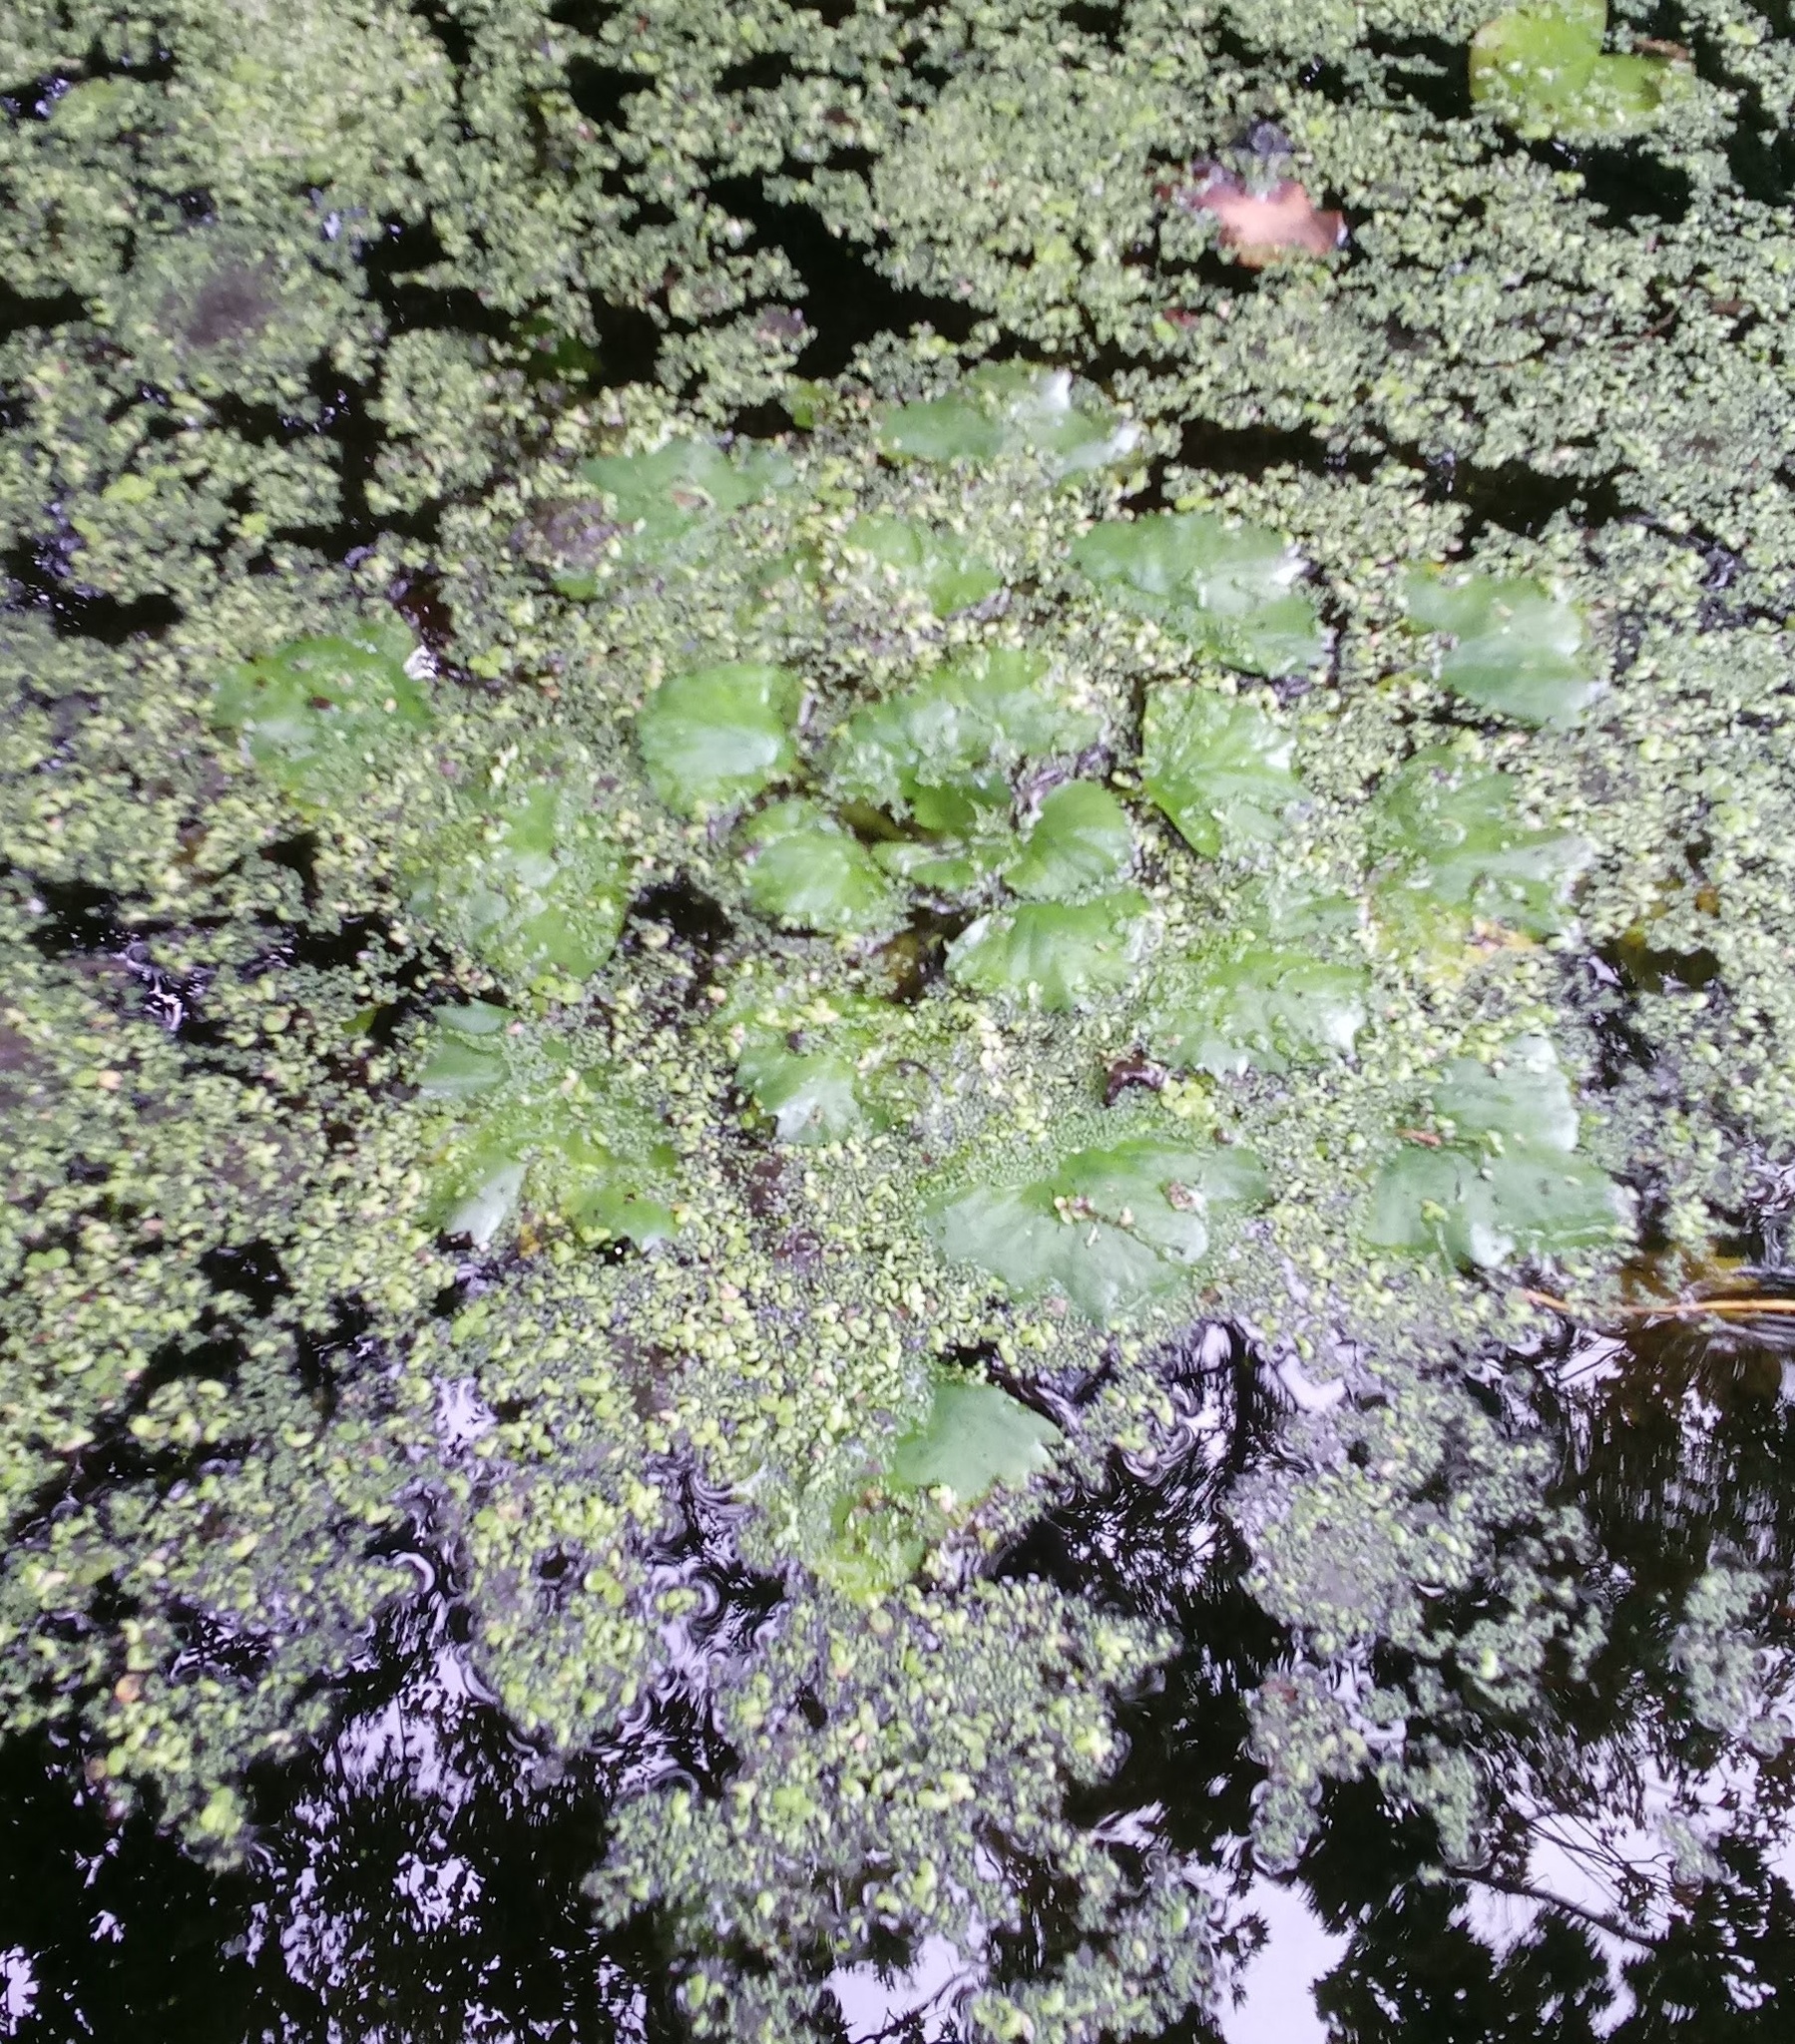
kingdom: Plantae
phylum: Tracheophyta
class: Magnoliopsida
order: Myrtales
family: Lythraceae
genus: Trapa
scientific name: Trapa natans
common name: Water chestnut
